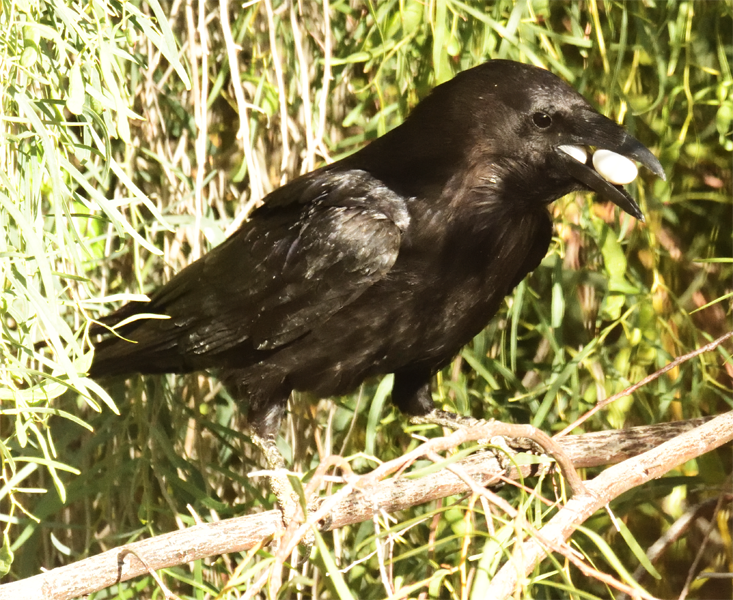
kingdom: Animalia
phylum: Chordata
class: Aves
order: Passeriformes
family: Corvidae
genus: Corvus
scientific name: Corvus corax
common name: Common raven
